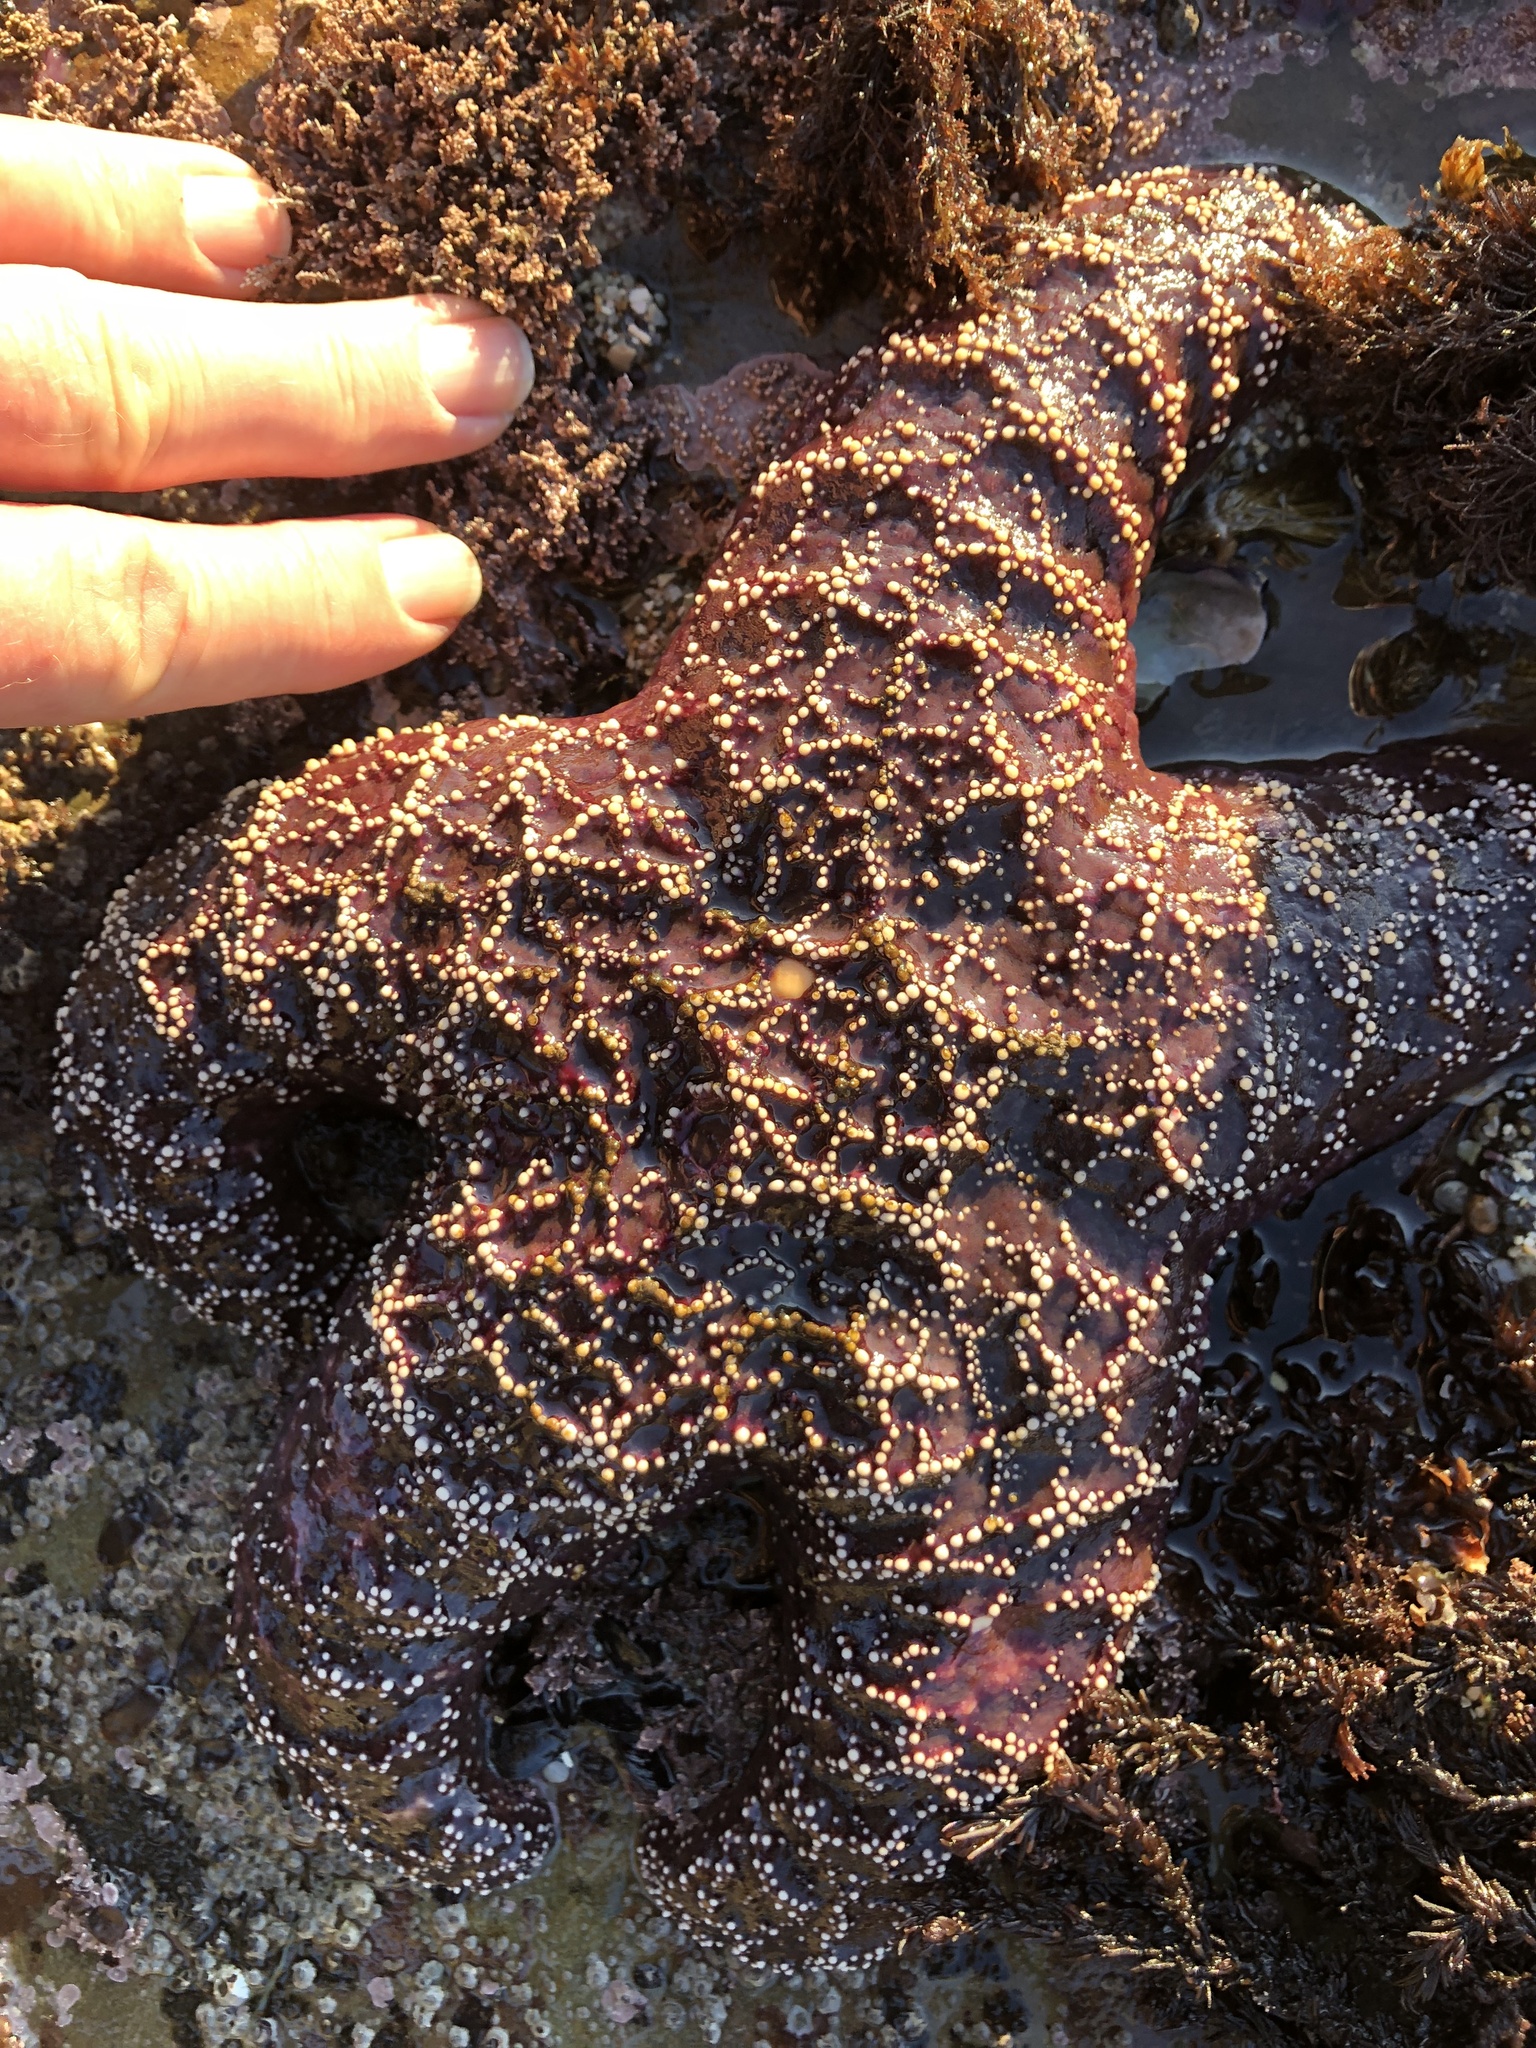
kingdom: Animalia
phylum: Echinodermata
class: Asteroidea
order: Forcipulatida
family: Asteriidae
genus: Pisaster
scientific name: Pisaster ochraceus
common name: Ochre stars
